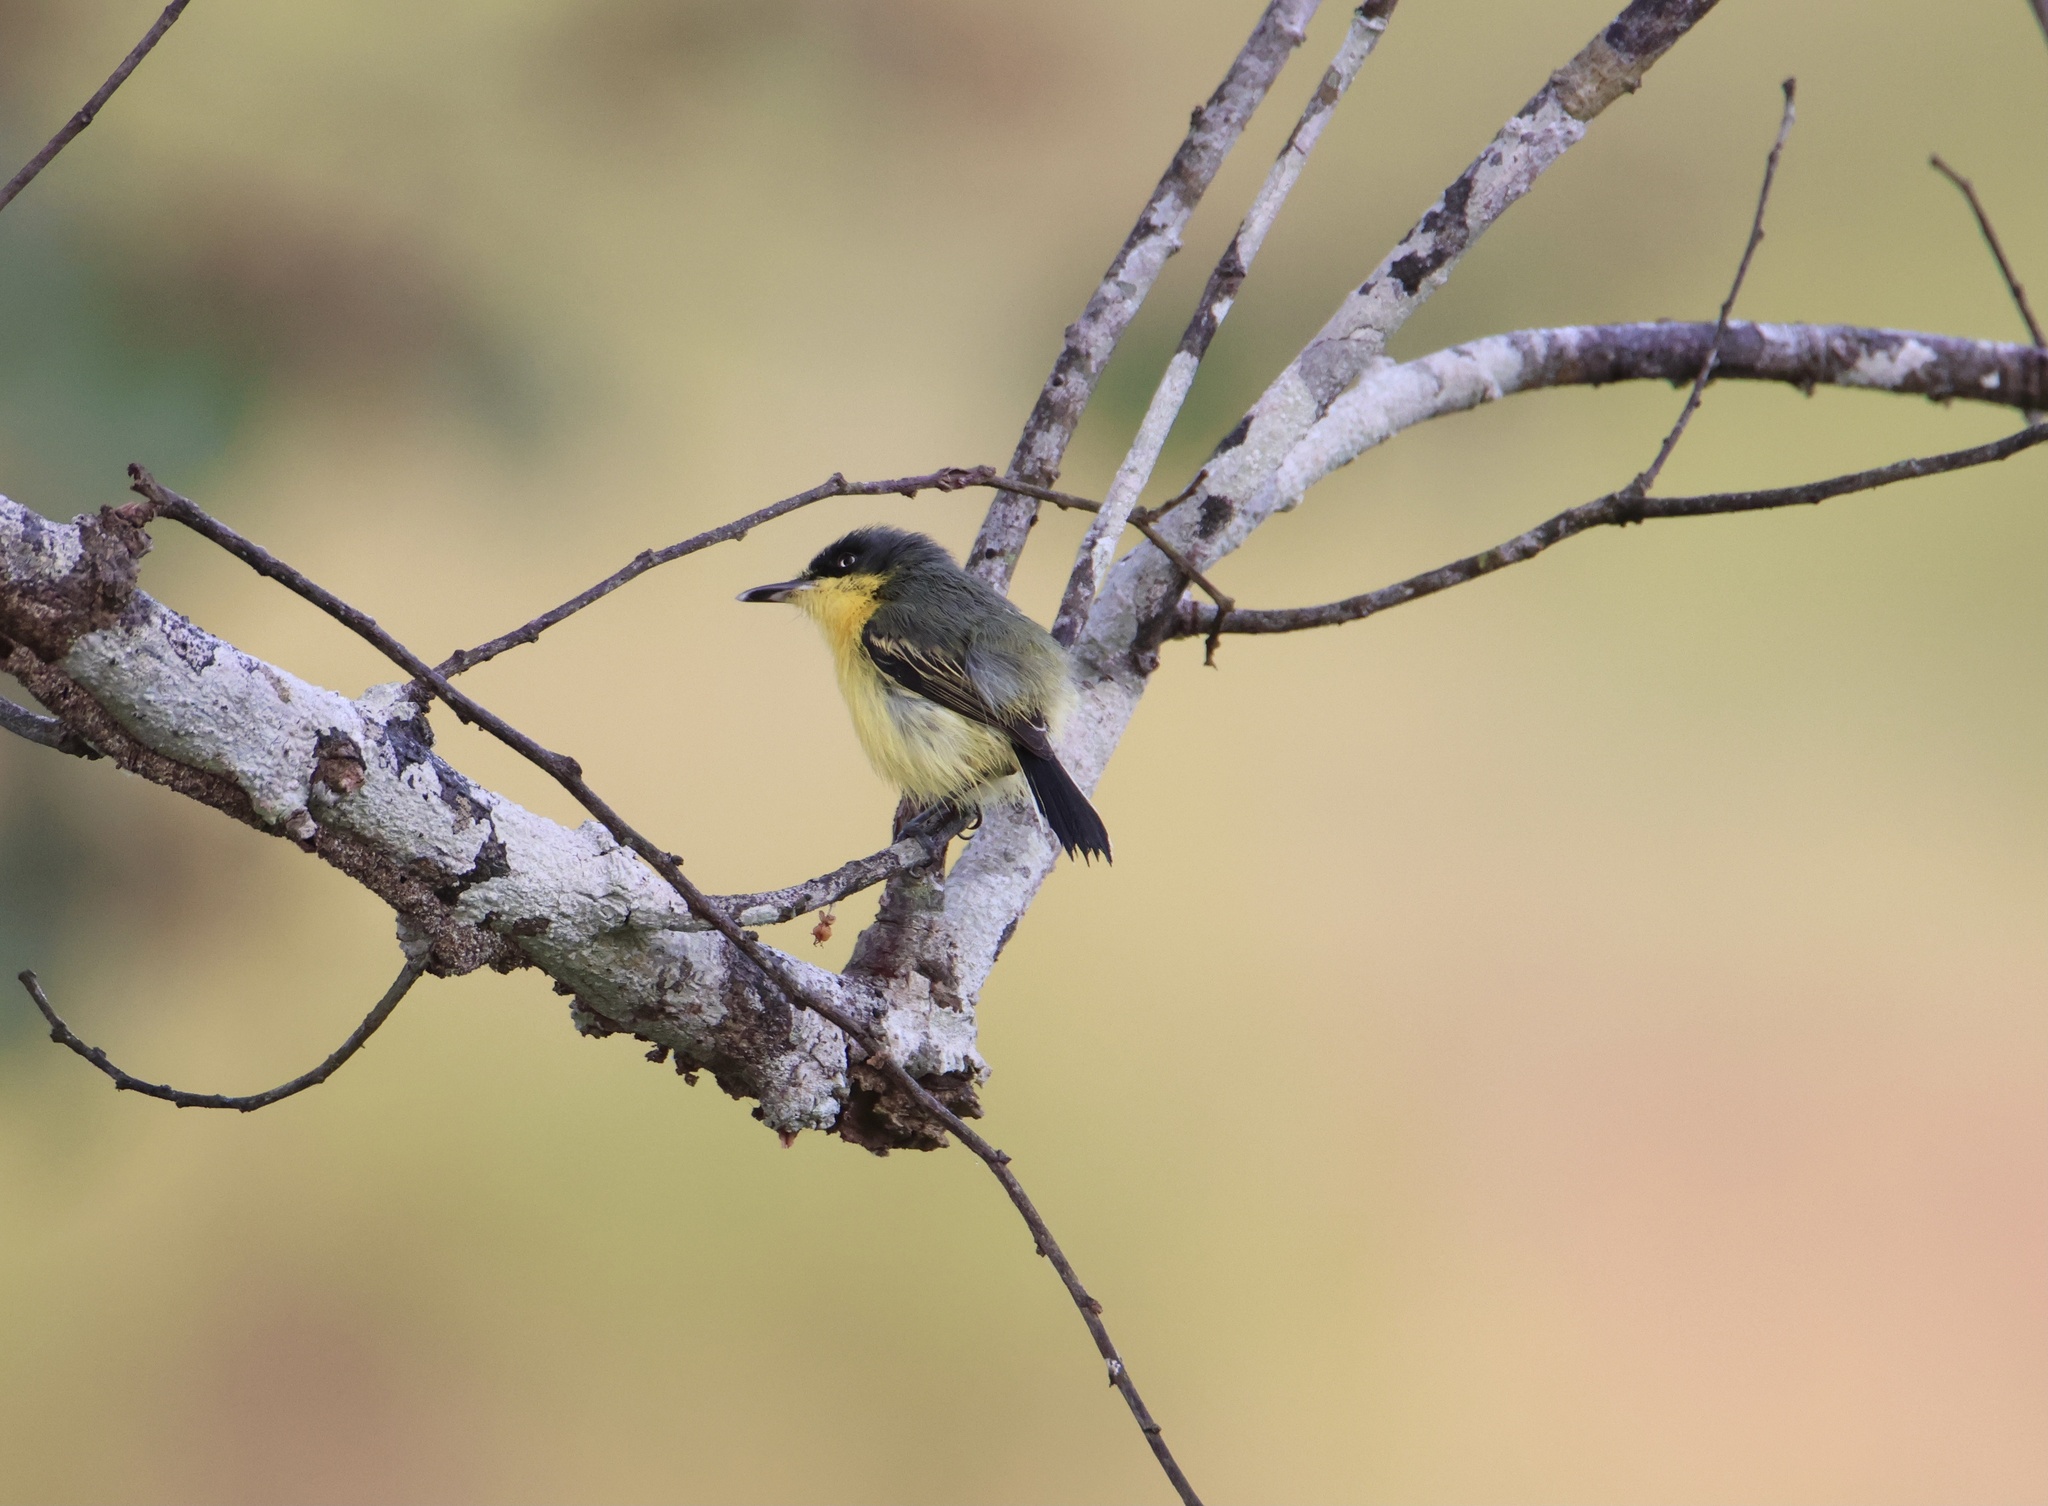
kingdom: Animalia
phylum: Chordata
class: Aves
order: Passeriformes
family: Tyrannidae
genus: Todirostrum
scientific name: Todirostrum cinereum
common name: Common tody-flycatcher
